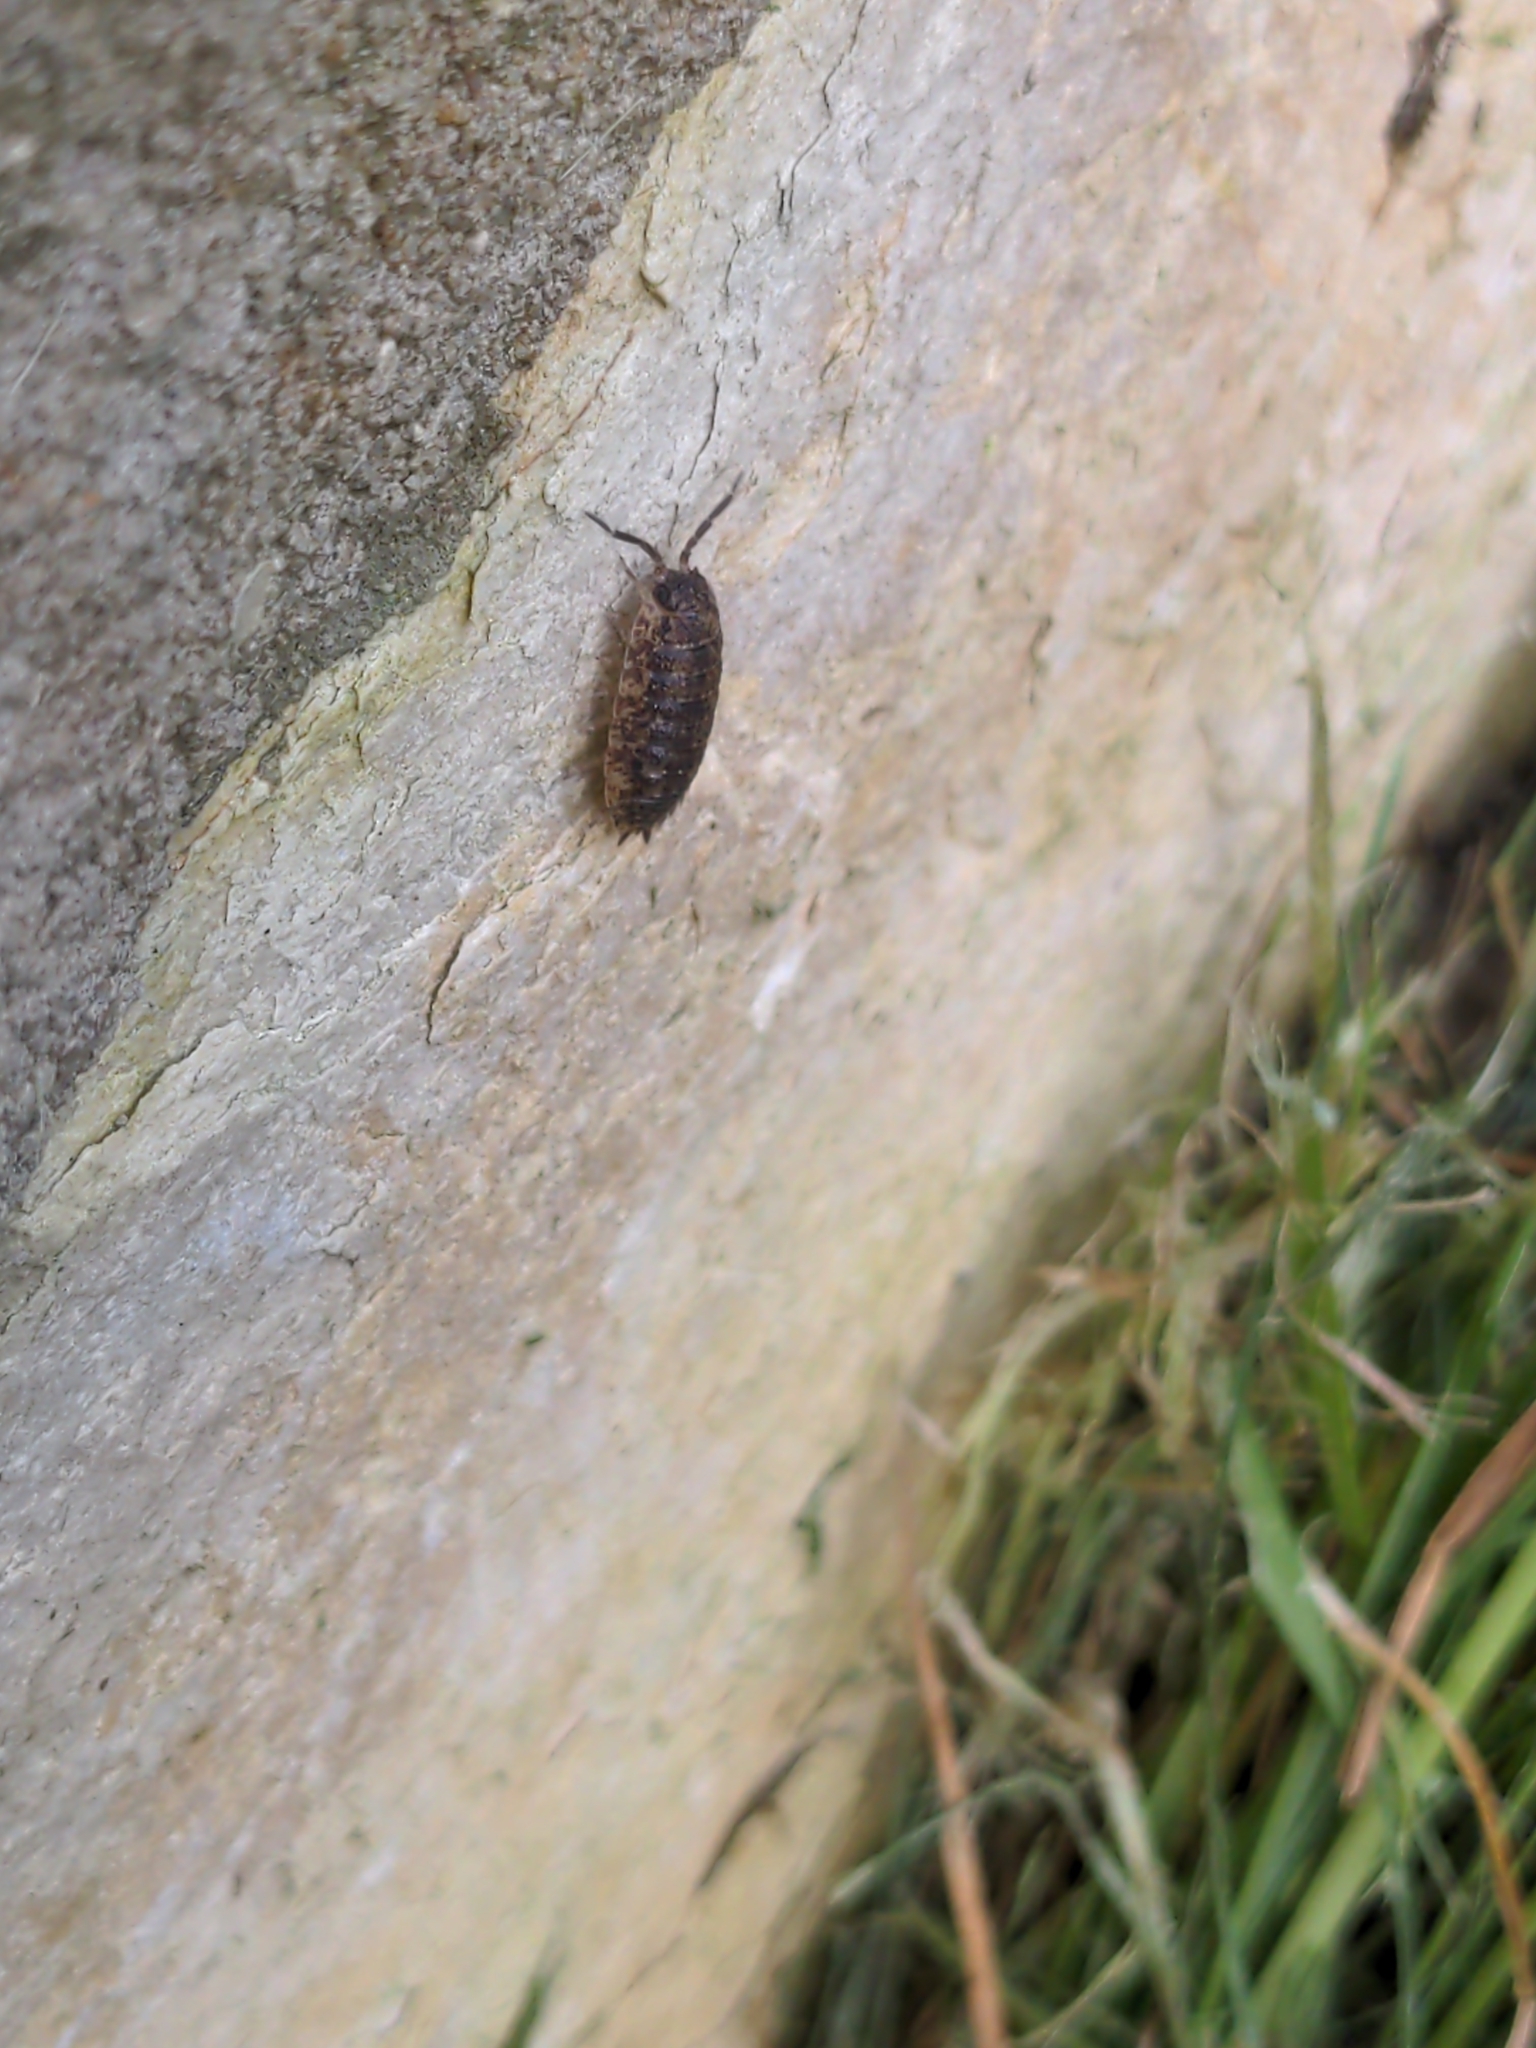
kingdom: Animalia
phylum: Arthropoda
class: Malacostraca
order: Isopoda
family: Porcellionidae
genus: Porcellio
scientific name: Porcellio scaber
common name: Common rough woodlouse
